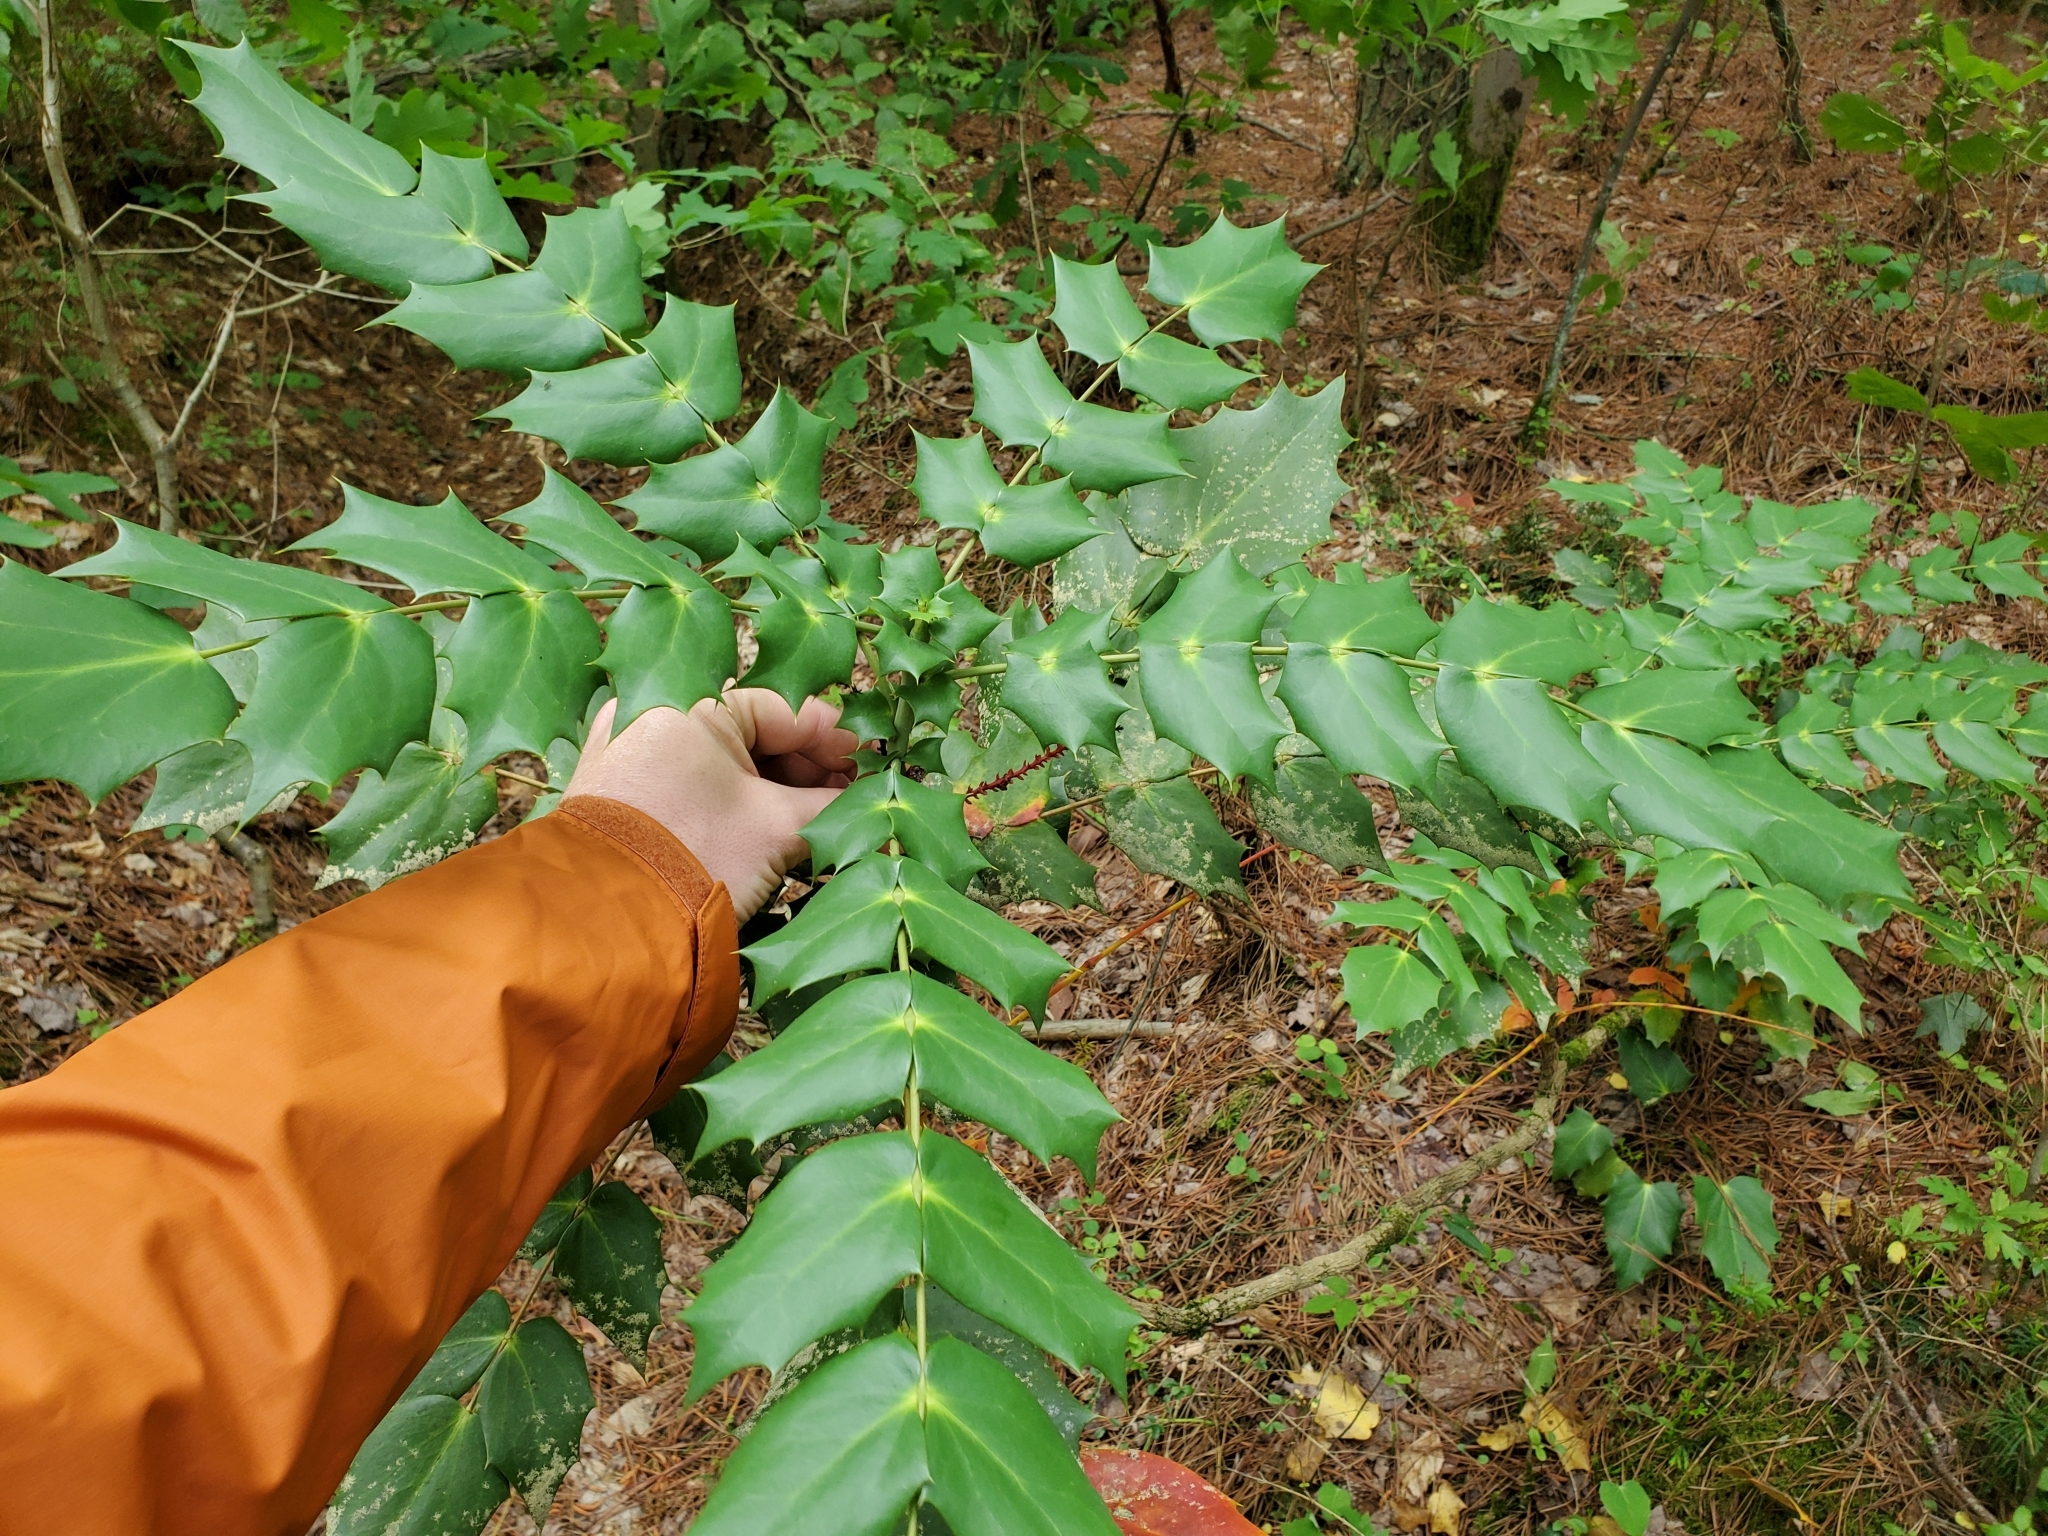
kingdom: Plantae
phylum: Tracheophyta
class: Magnoliopsida
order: Ranunculales
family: Berberidaceae
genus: Mahonia
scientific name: Mahonia bealei
